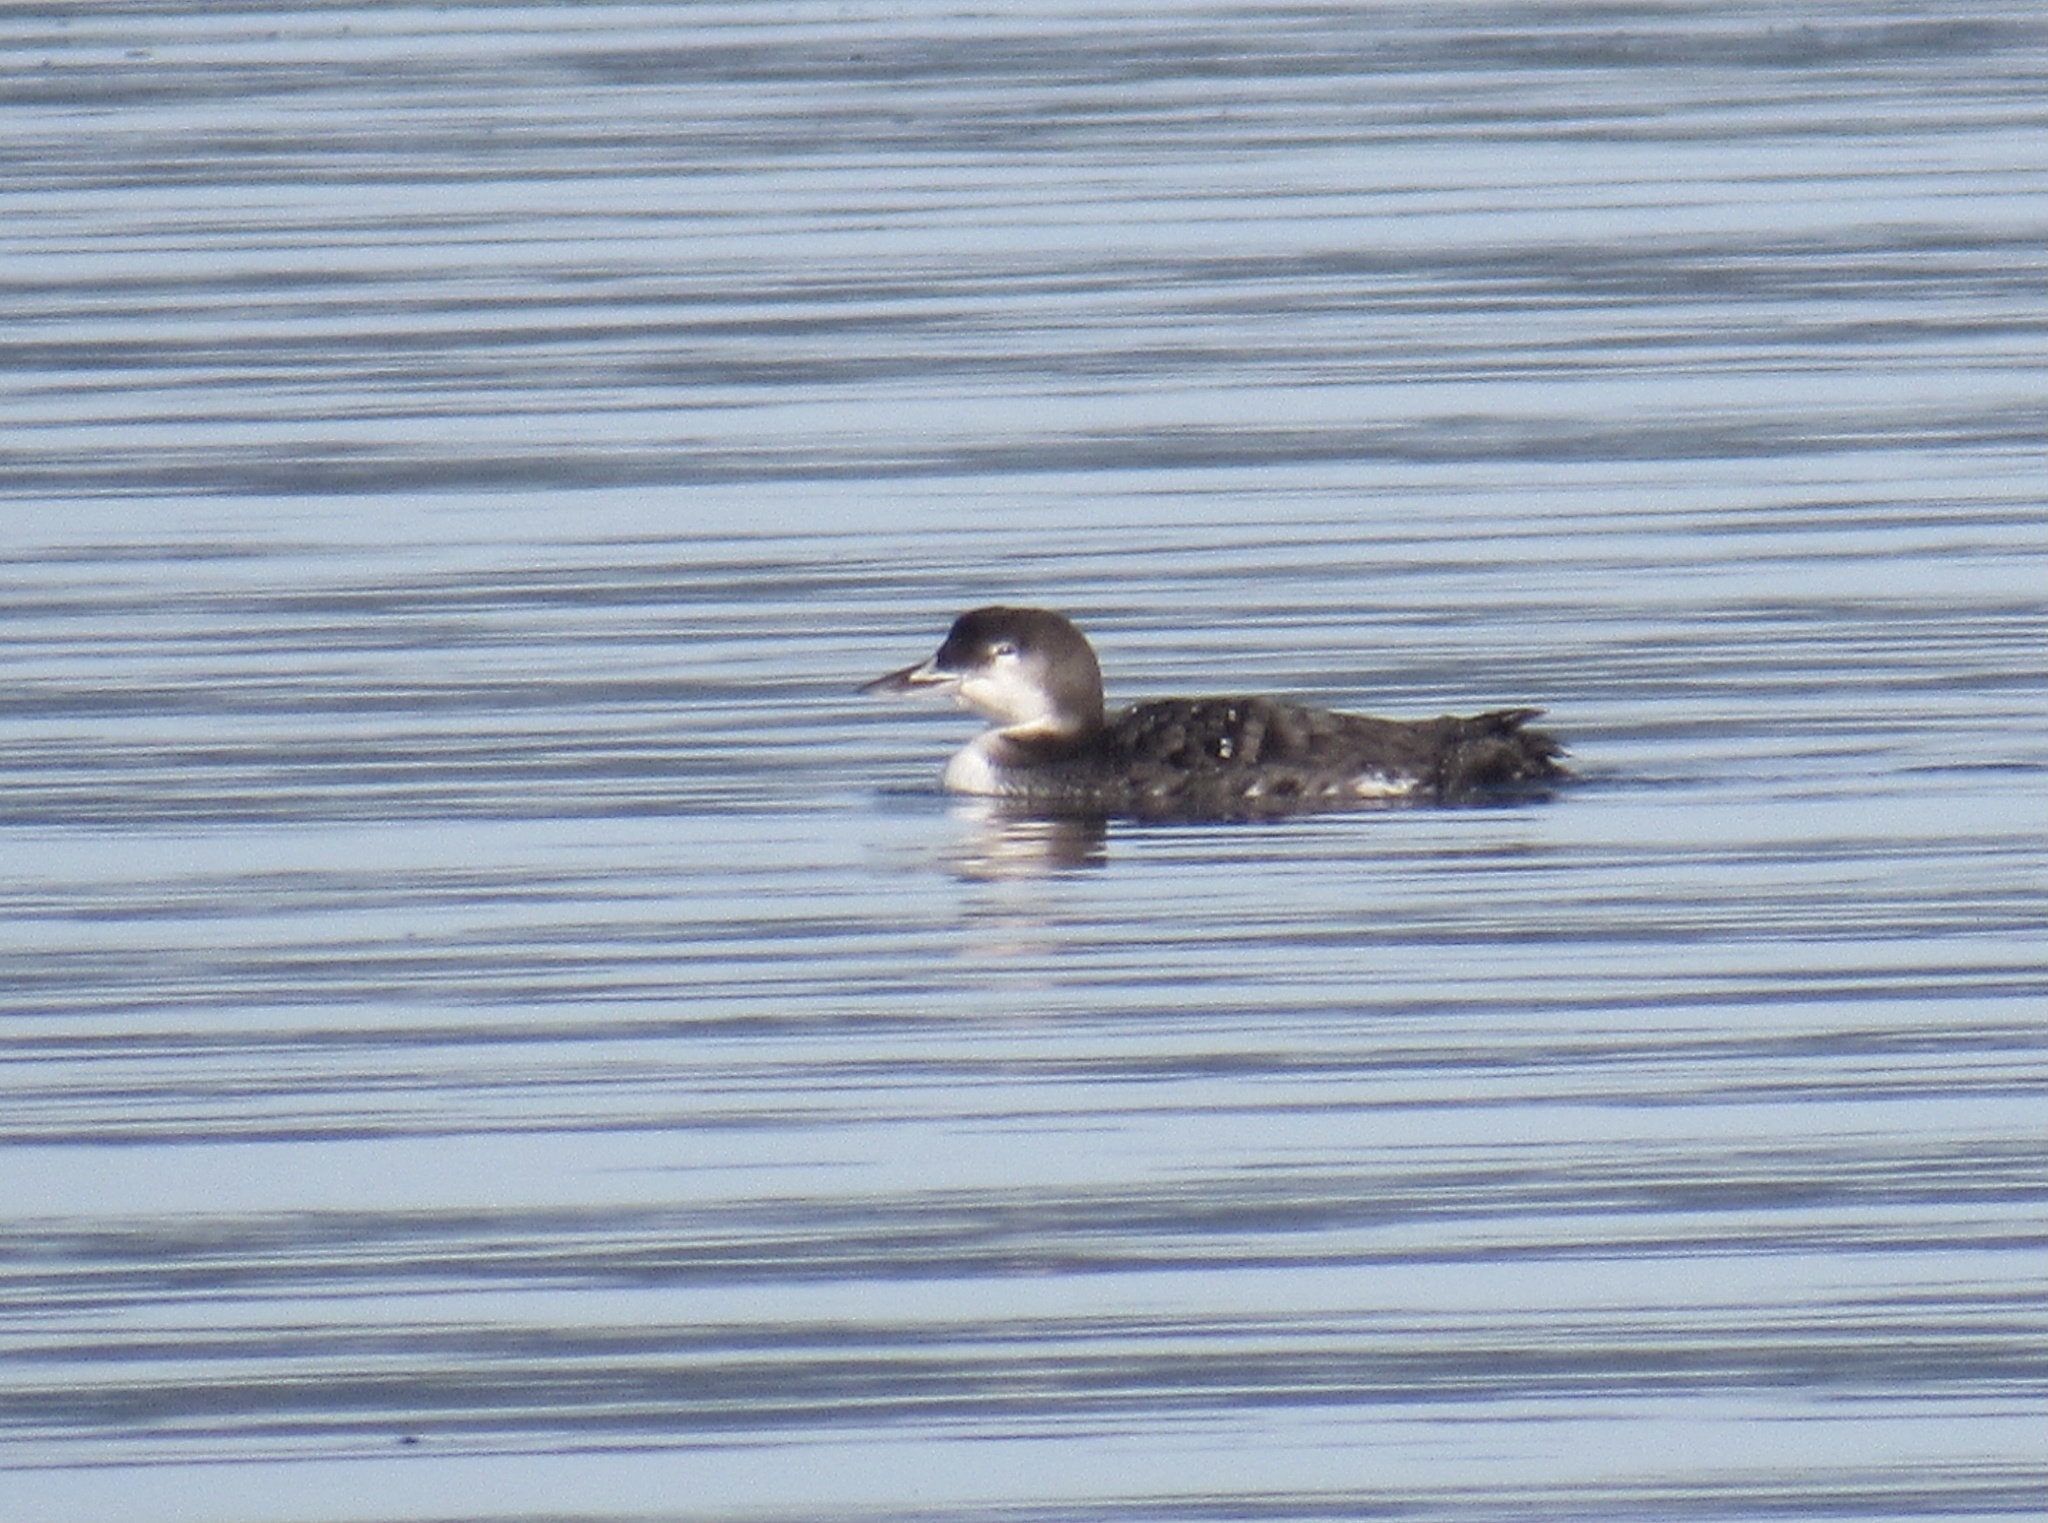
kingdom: Animalia
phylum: Chordata
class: Aves
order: Gaviiformes
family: Gaviidae
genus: Gavia
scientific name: Gavia immer
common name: Common loon
